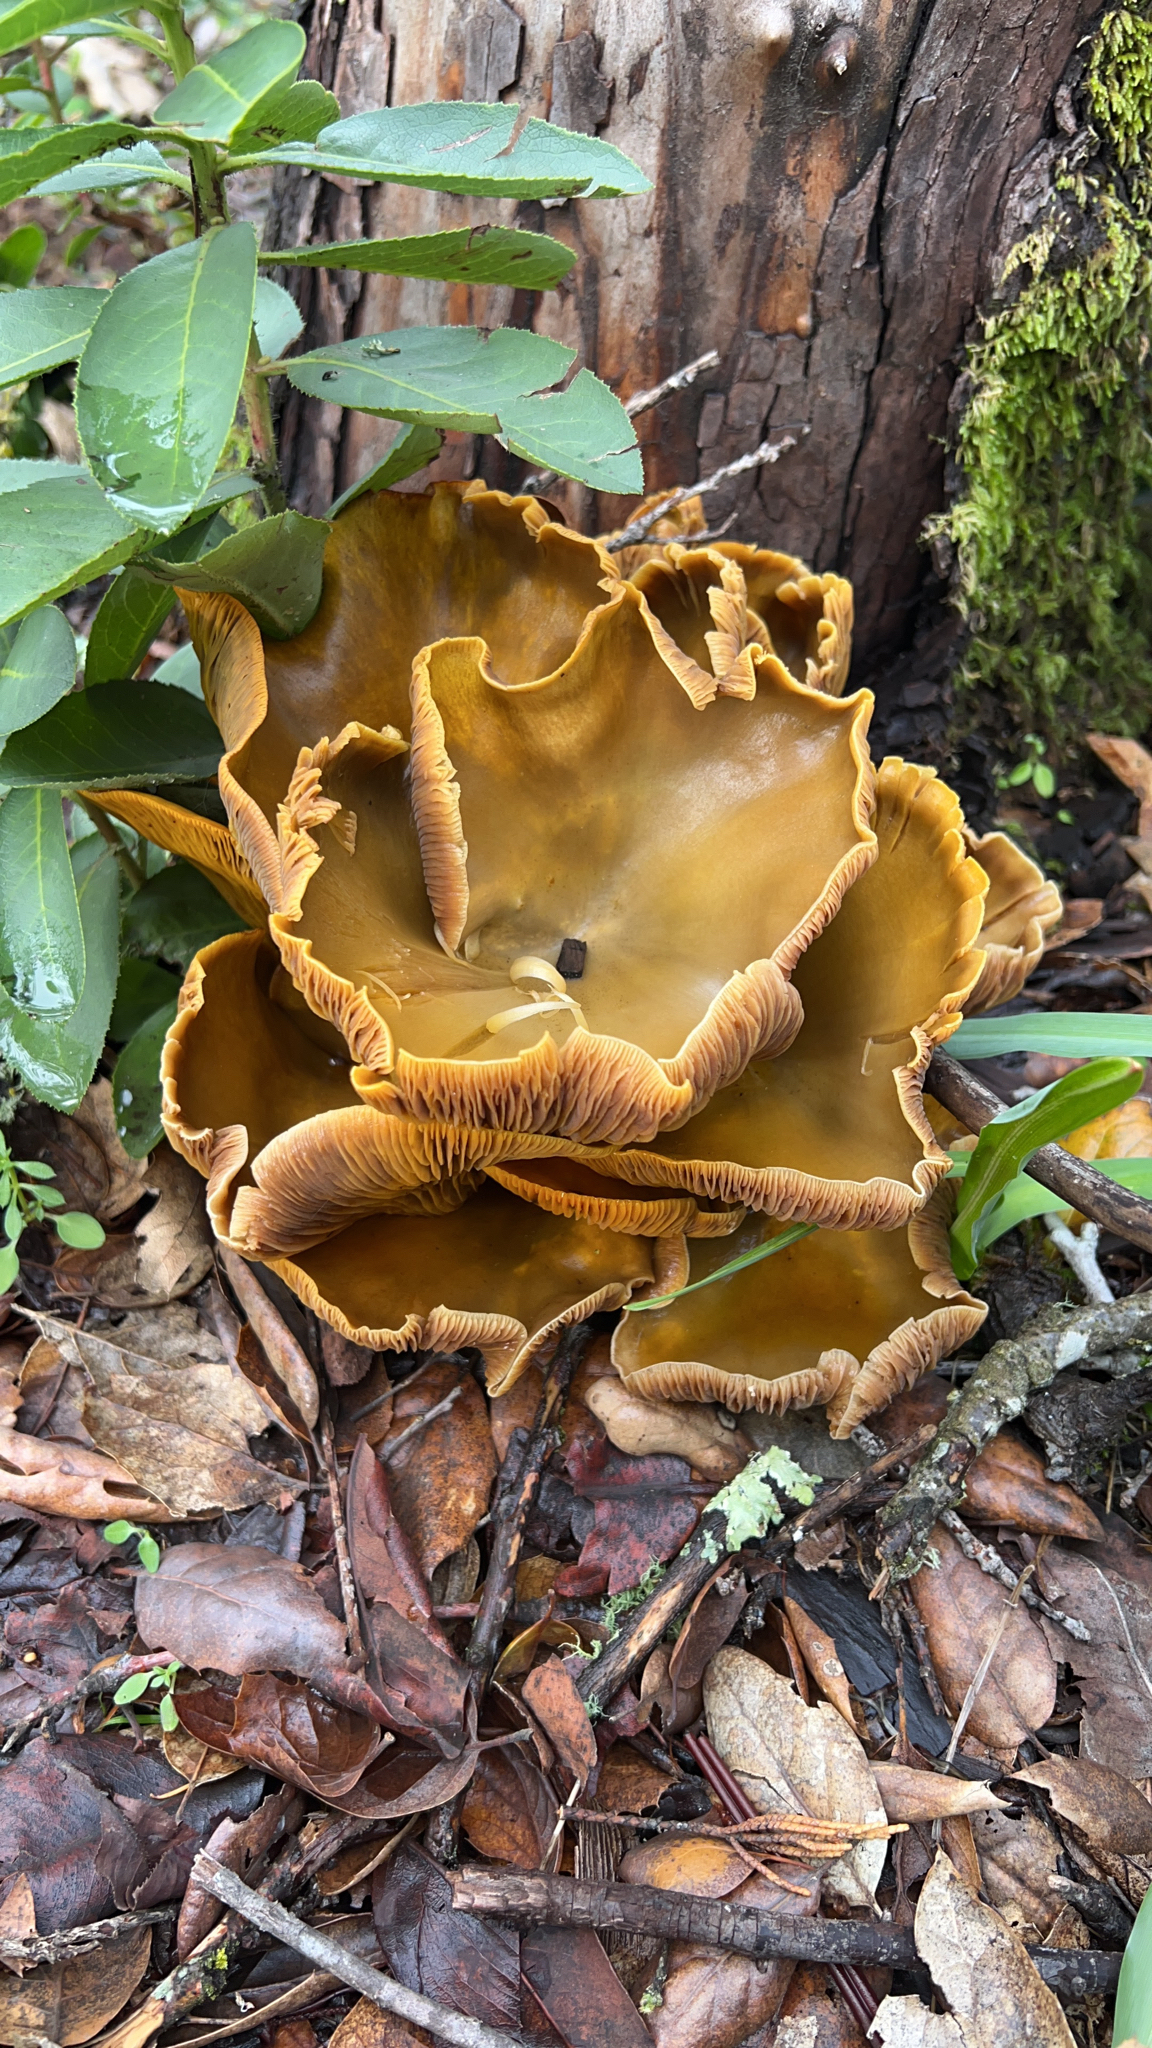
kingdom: Fungi
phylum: Basidiomycota
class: Agaricomycetes
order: Agaricales
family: Omphalotaceae
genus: Omphalotus
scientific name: Omphalotus olivascens
